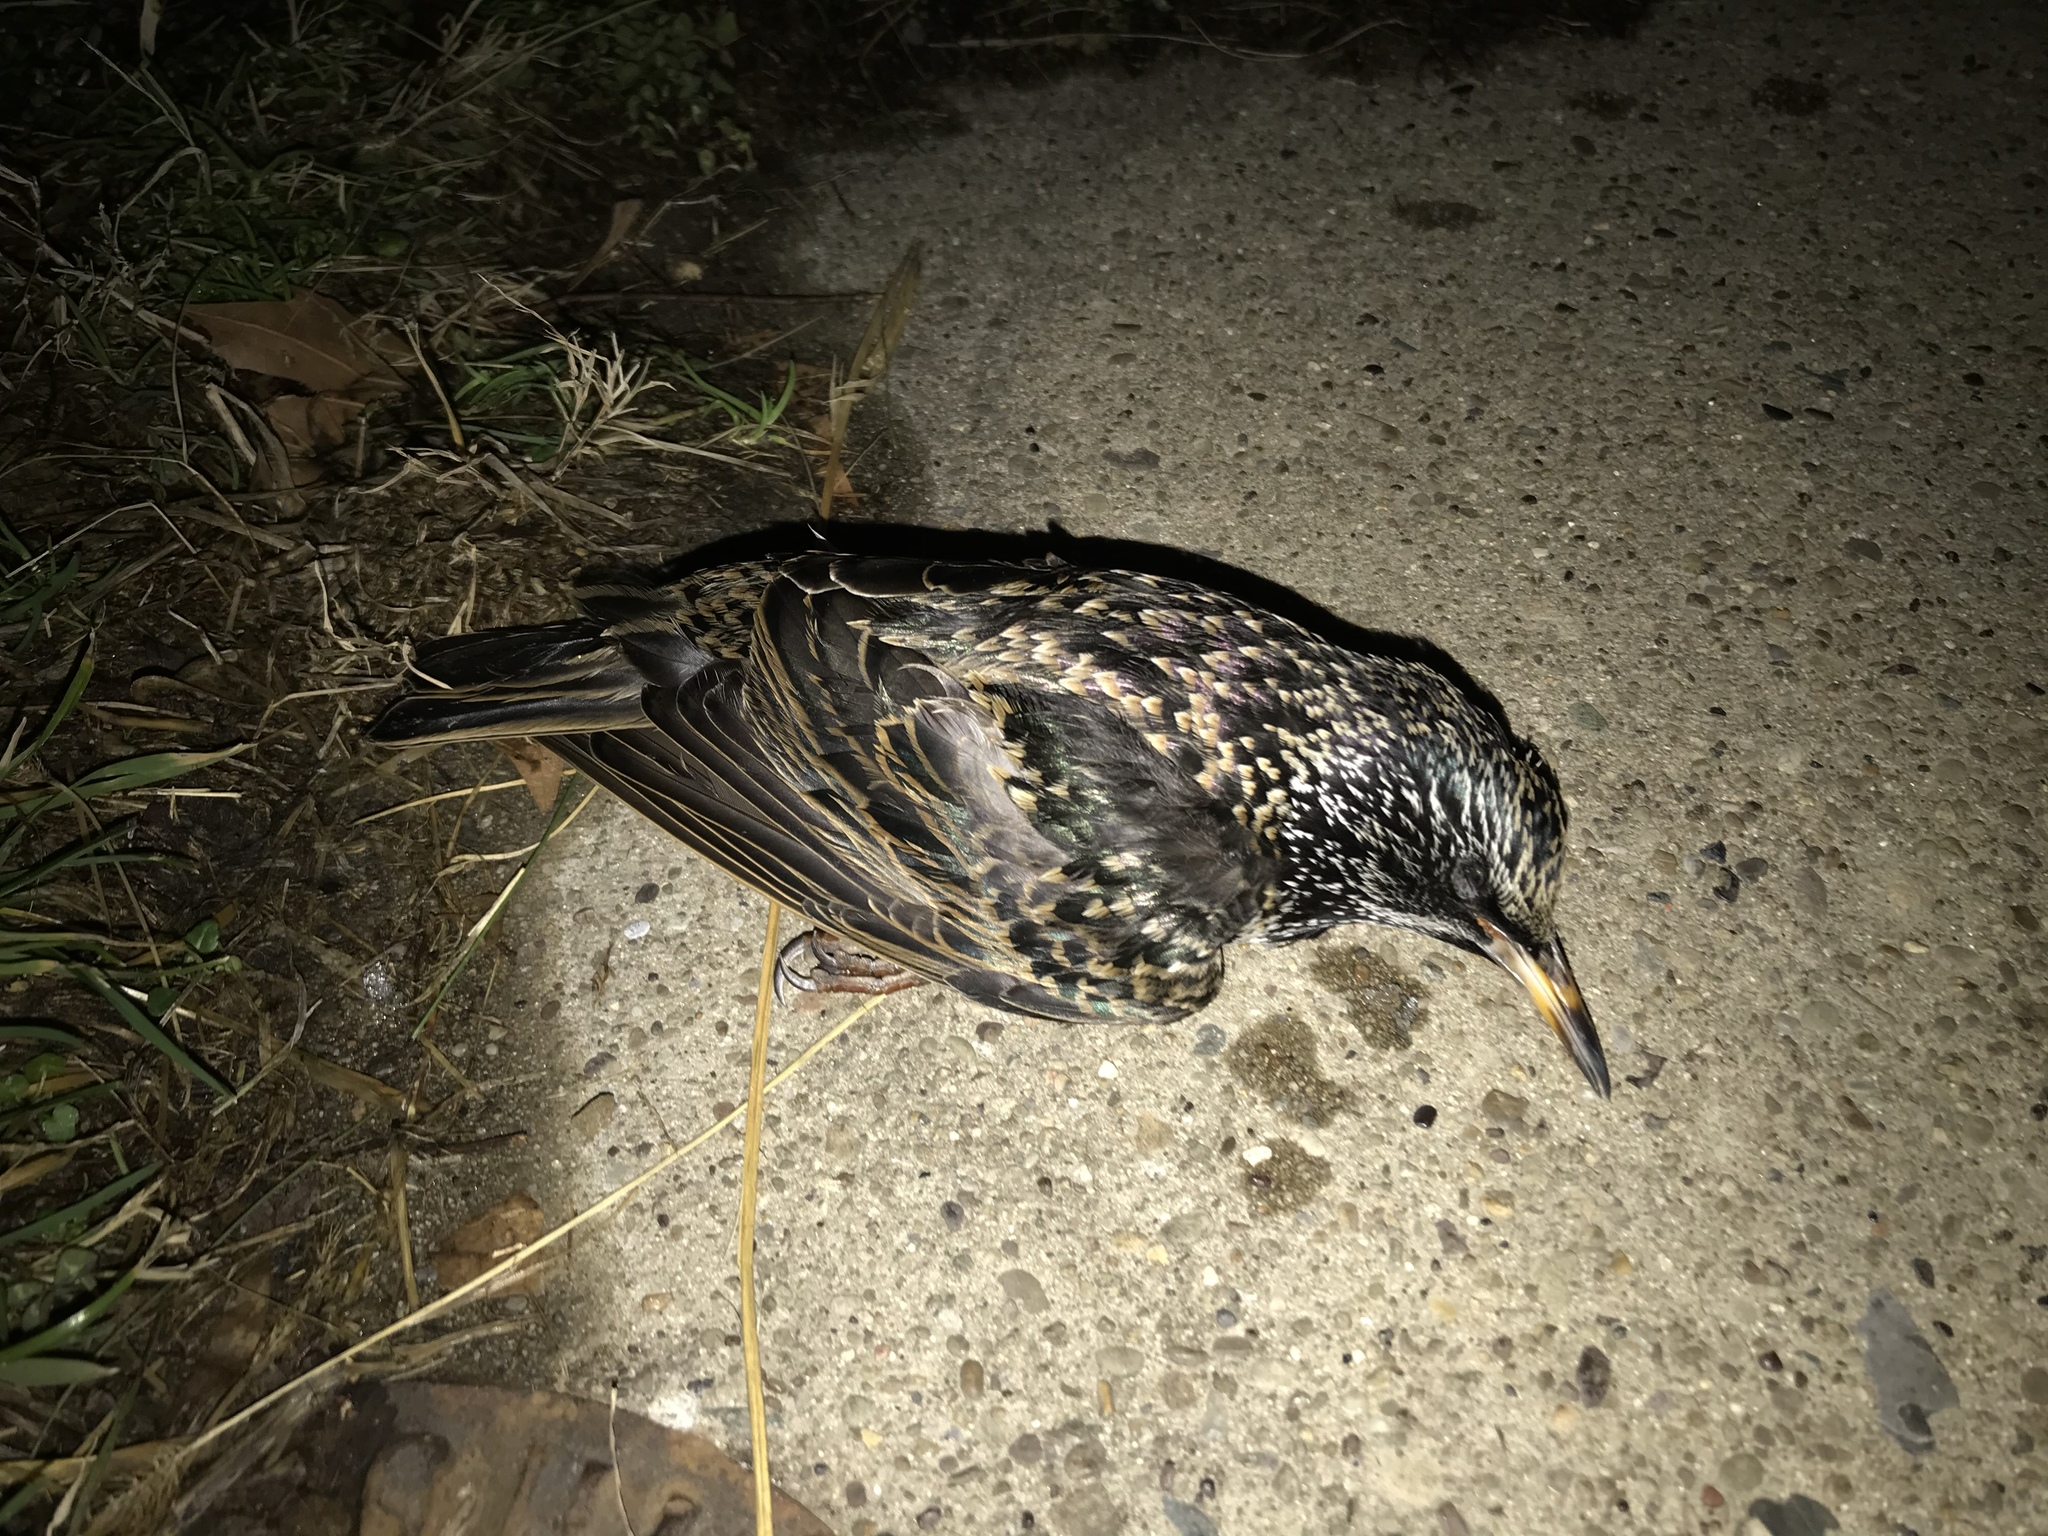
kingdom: Animalia
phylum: Chordata
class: Aves
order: Passeriformes
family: Sturnidae
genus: Sturnus
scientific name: Sturnus vulgaris
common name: Common starling
